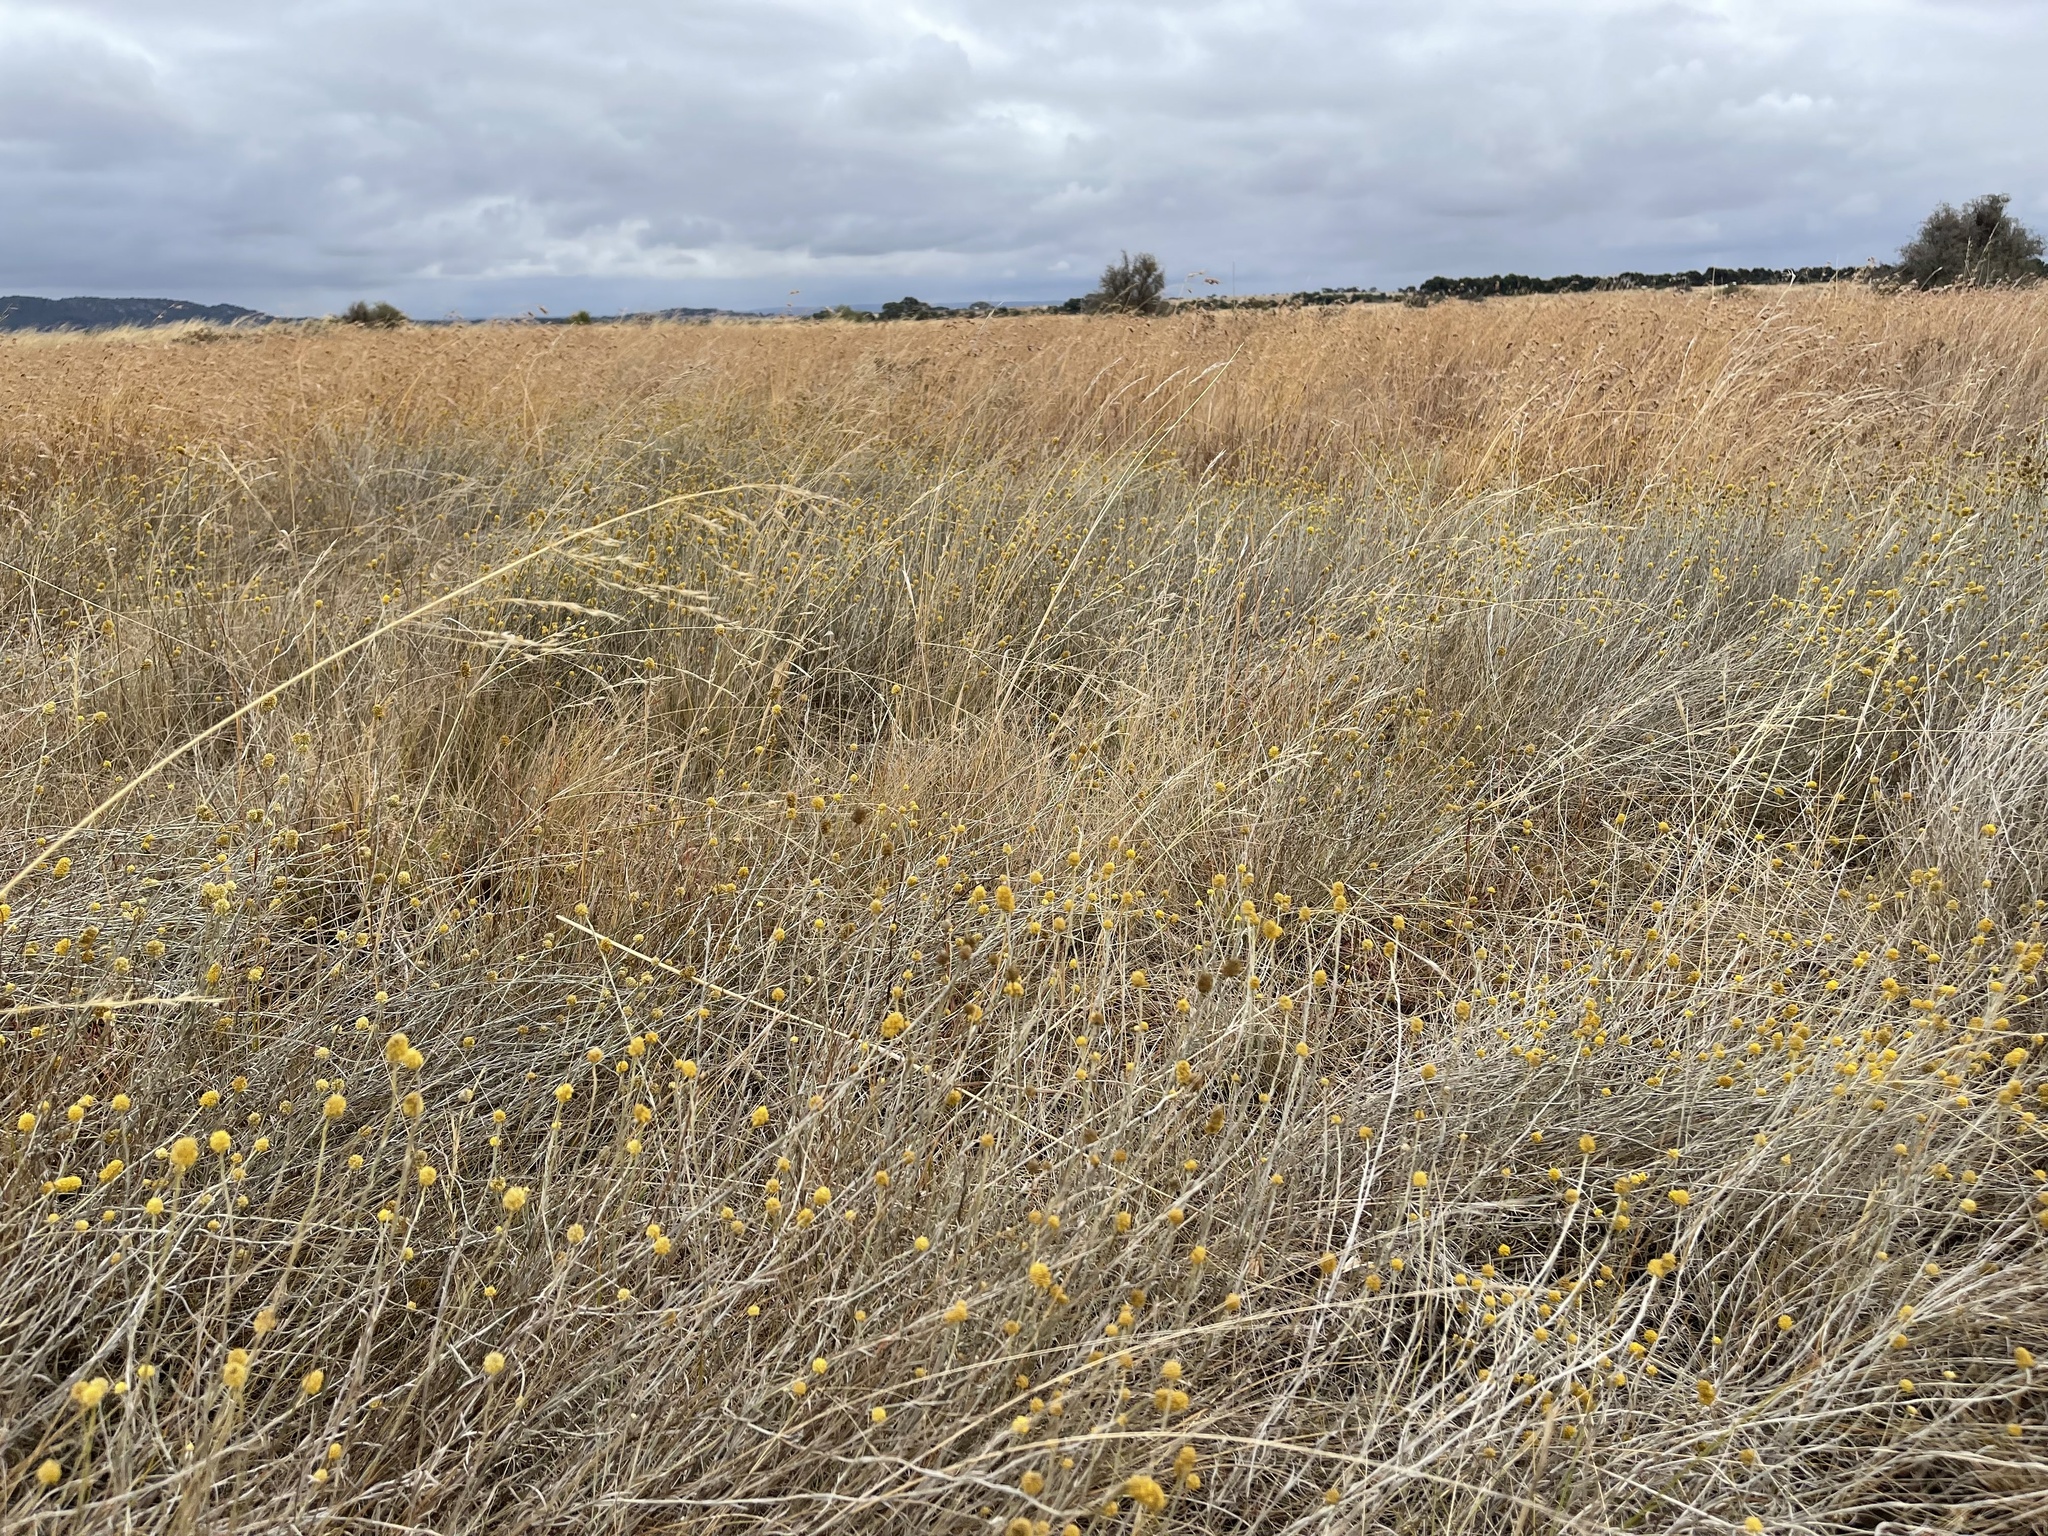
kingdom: Plantae
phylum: Tracheophyta
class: Magnoliopsida
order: Asterales
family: Asteraceae
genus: Calocephalus
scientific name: Calocephalus citreus
